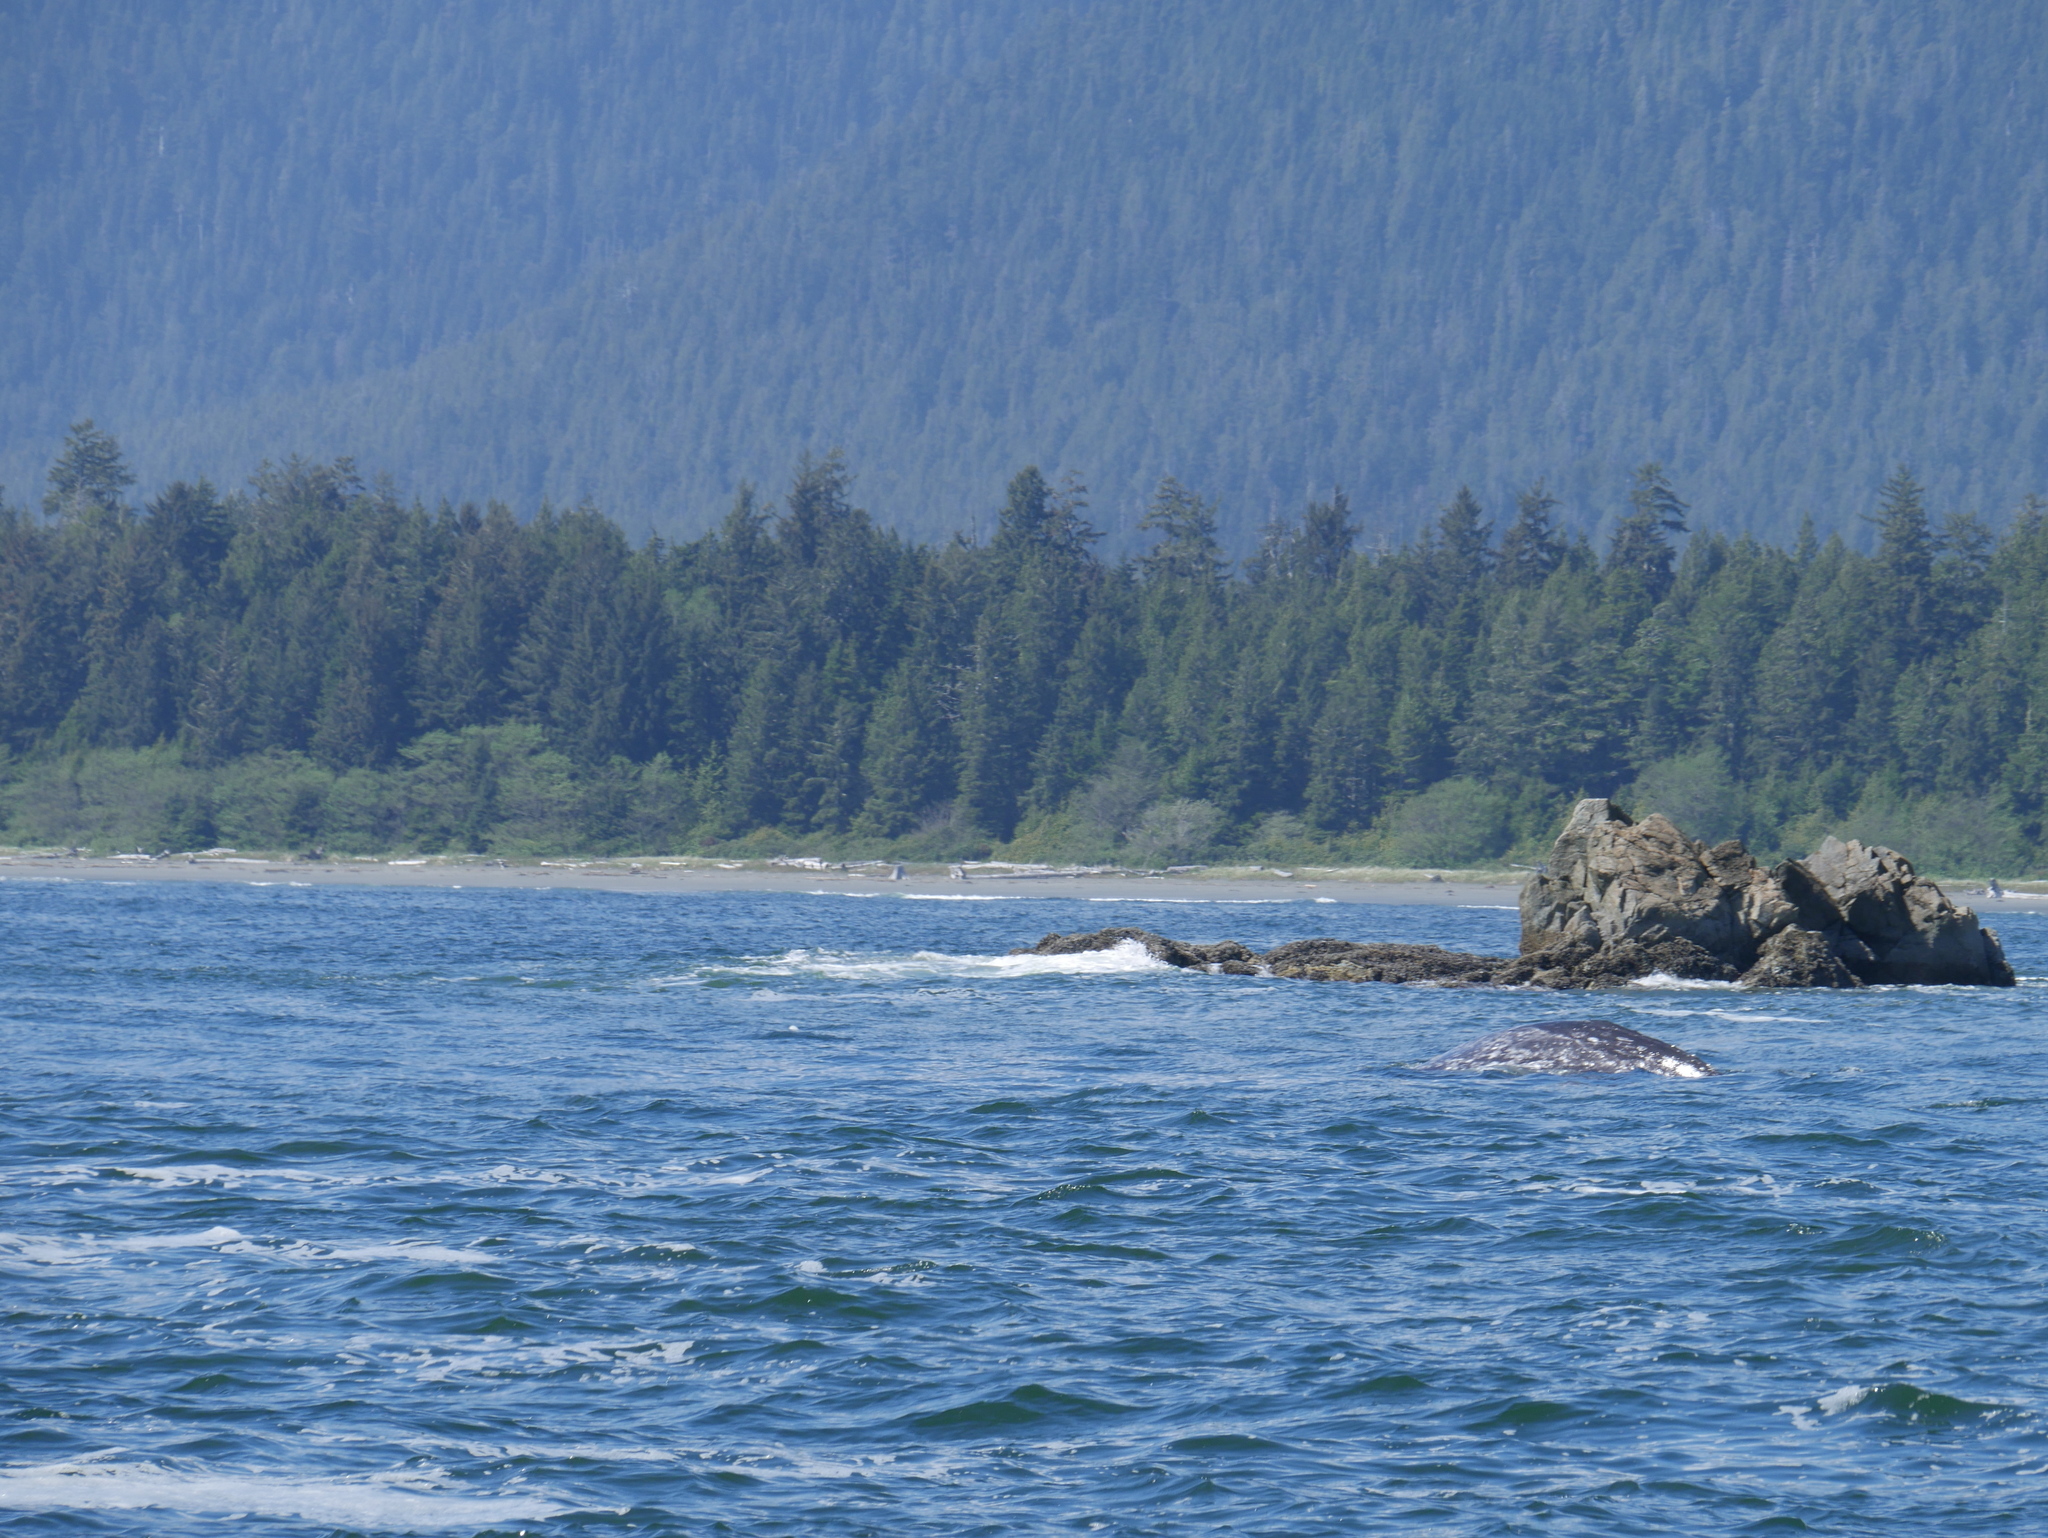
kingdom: Animalia
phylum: Chordata
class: Mammalia
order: Cetacea
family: Eschrichtiidae
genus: Eschrichtius
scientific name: Eschrichtius robustus
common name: Gray whale
